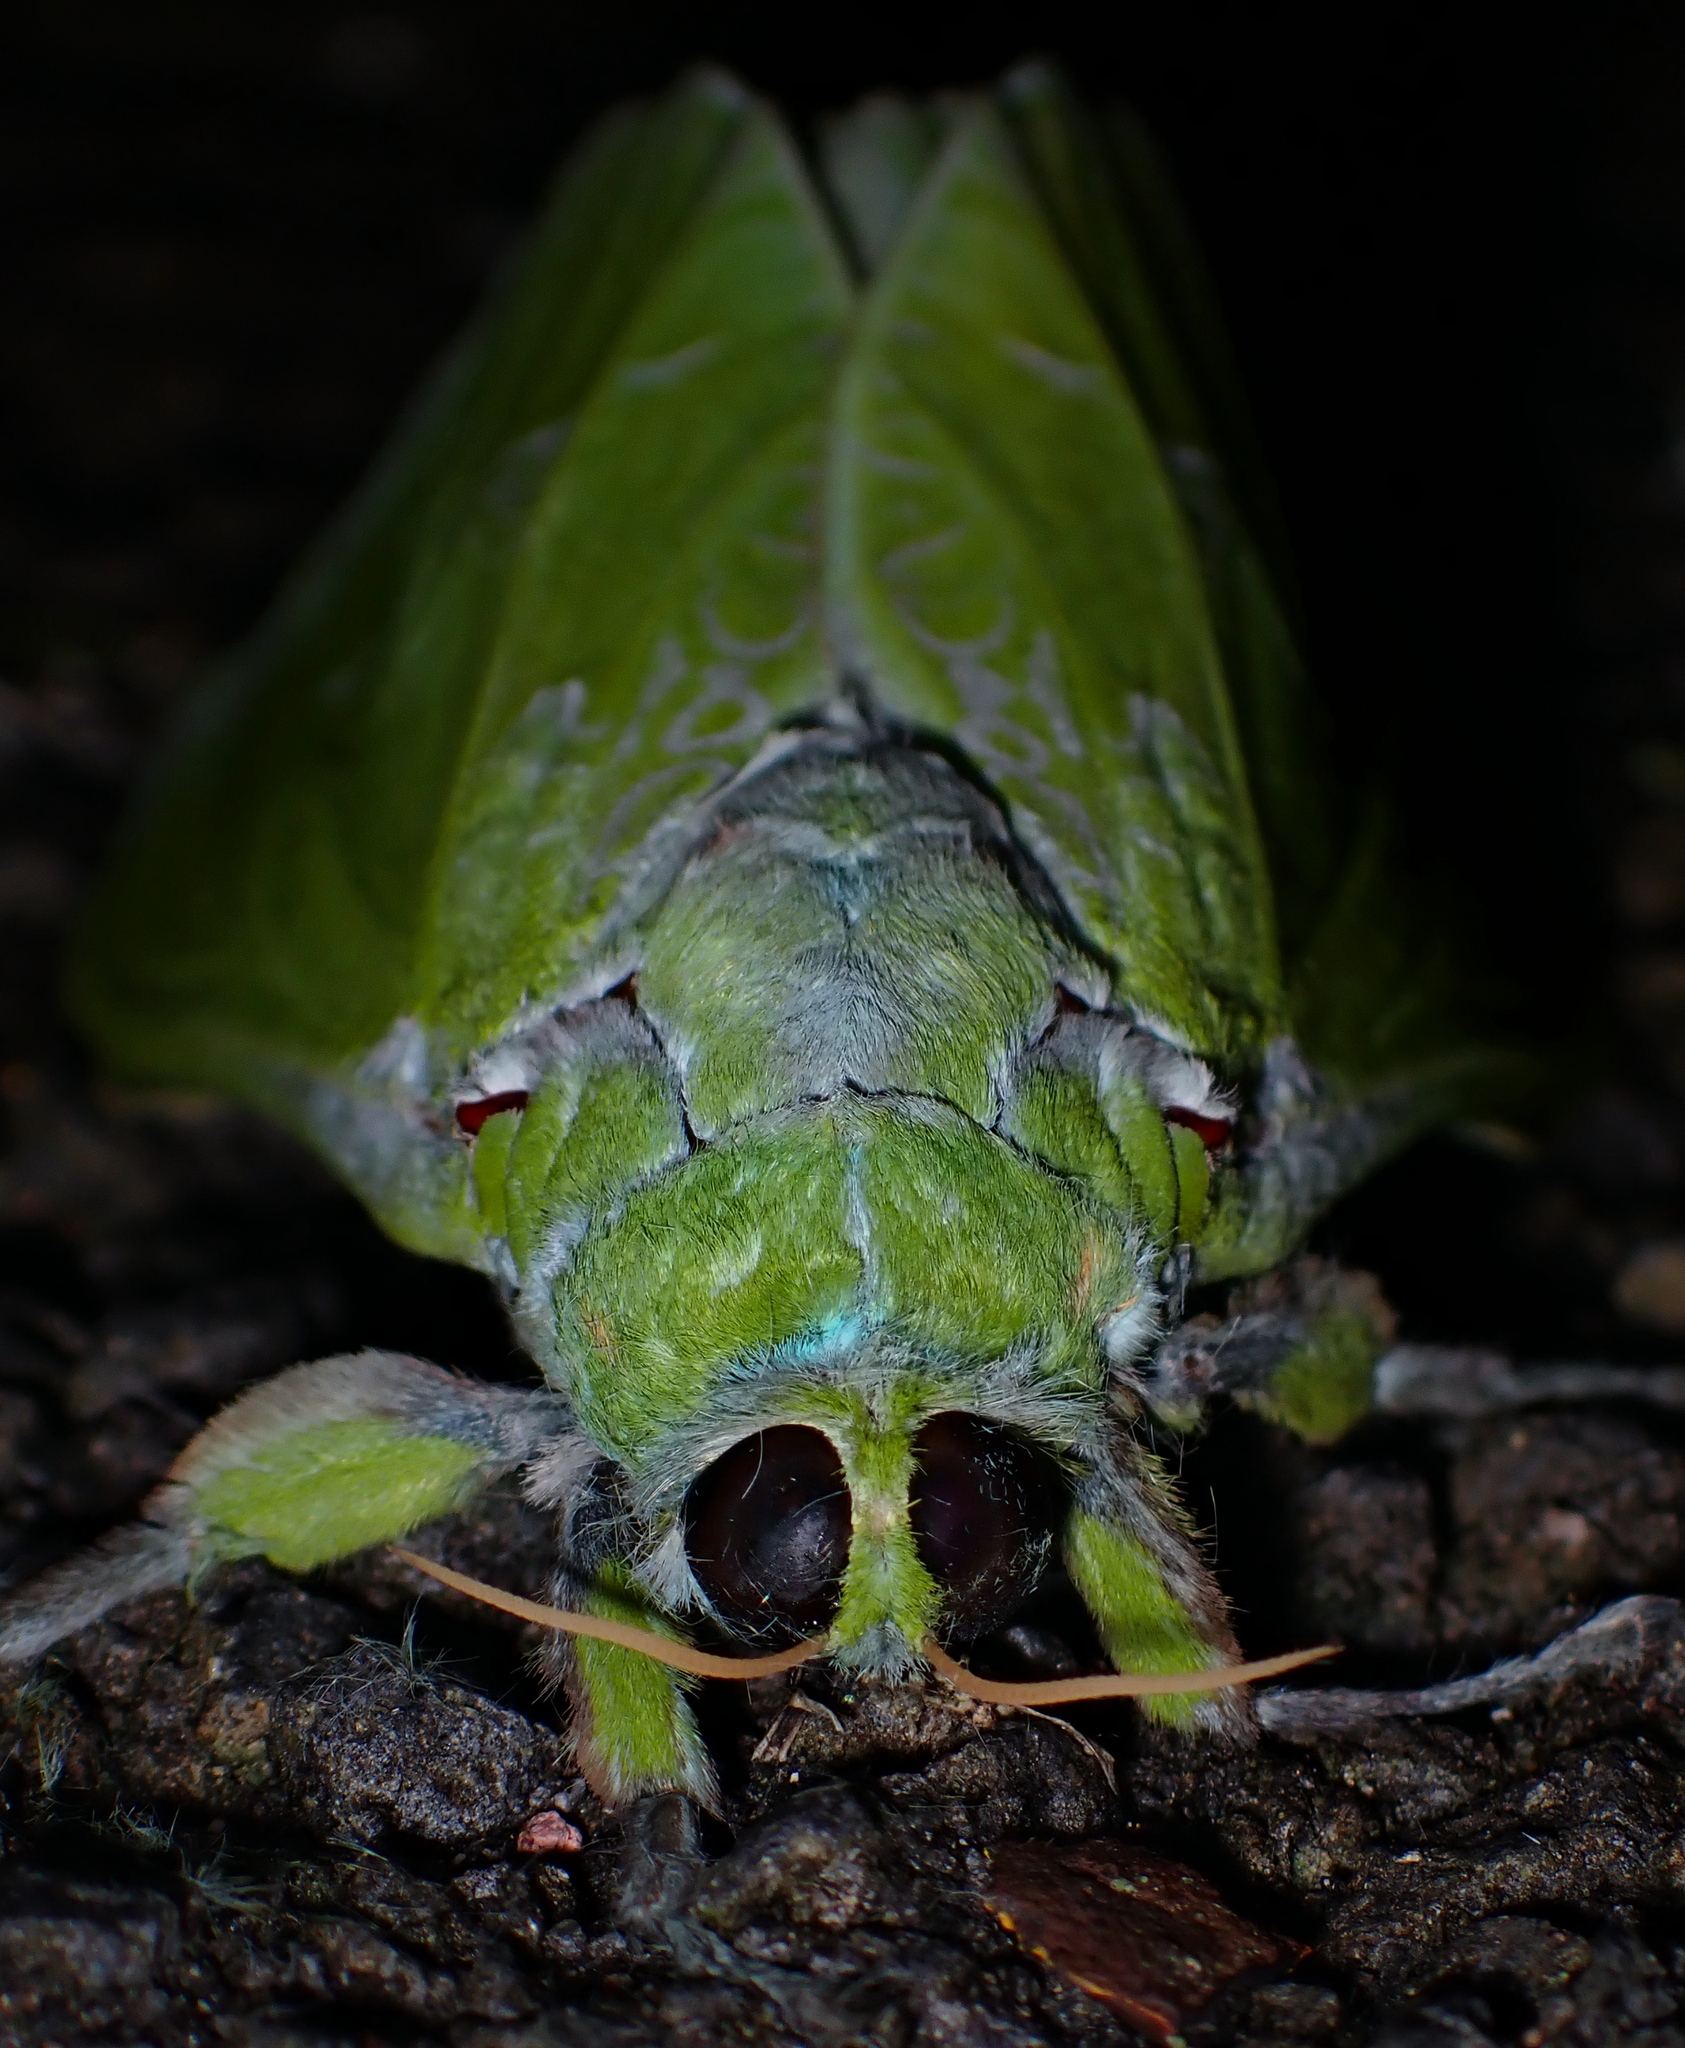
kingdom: Animalia
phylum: Arthropoda
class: Insecta
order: Lepidoptera
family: Hepialidae
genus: Aenetus
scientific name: Aenetus virescens
